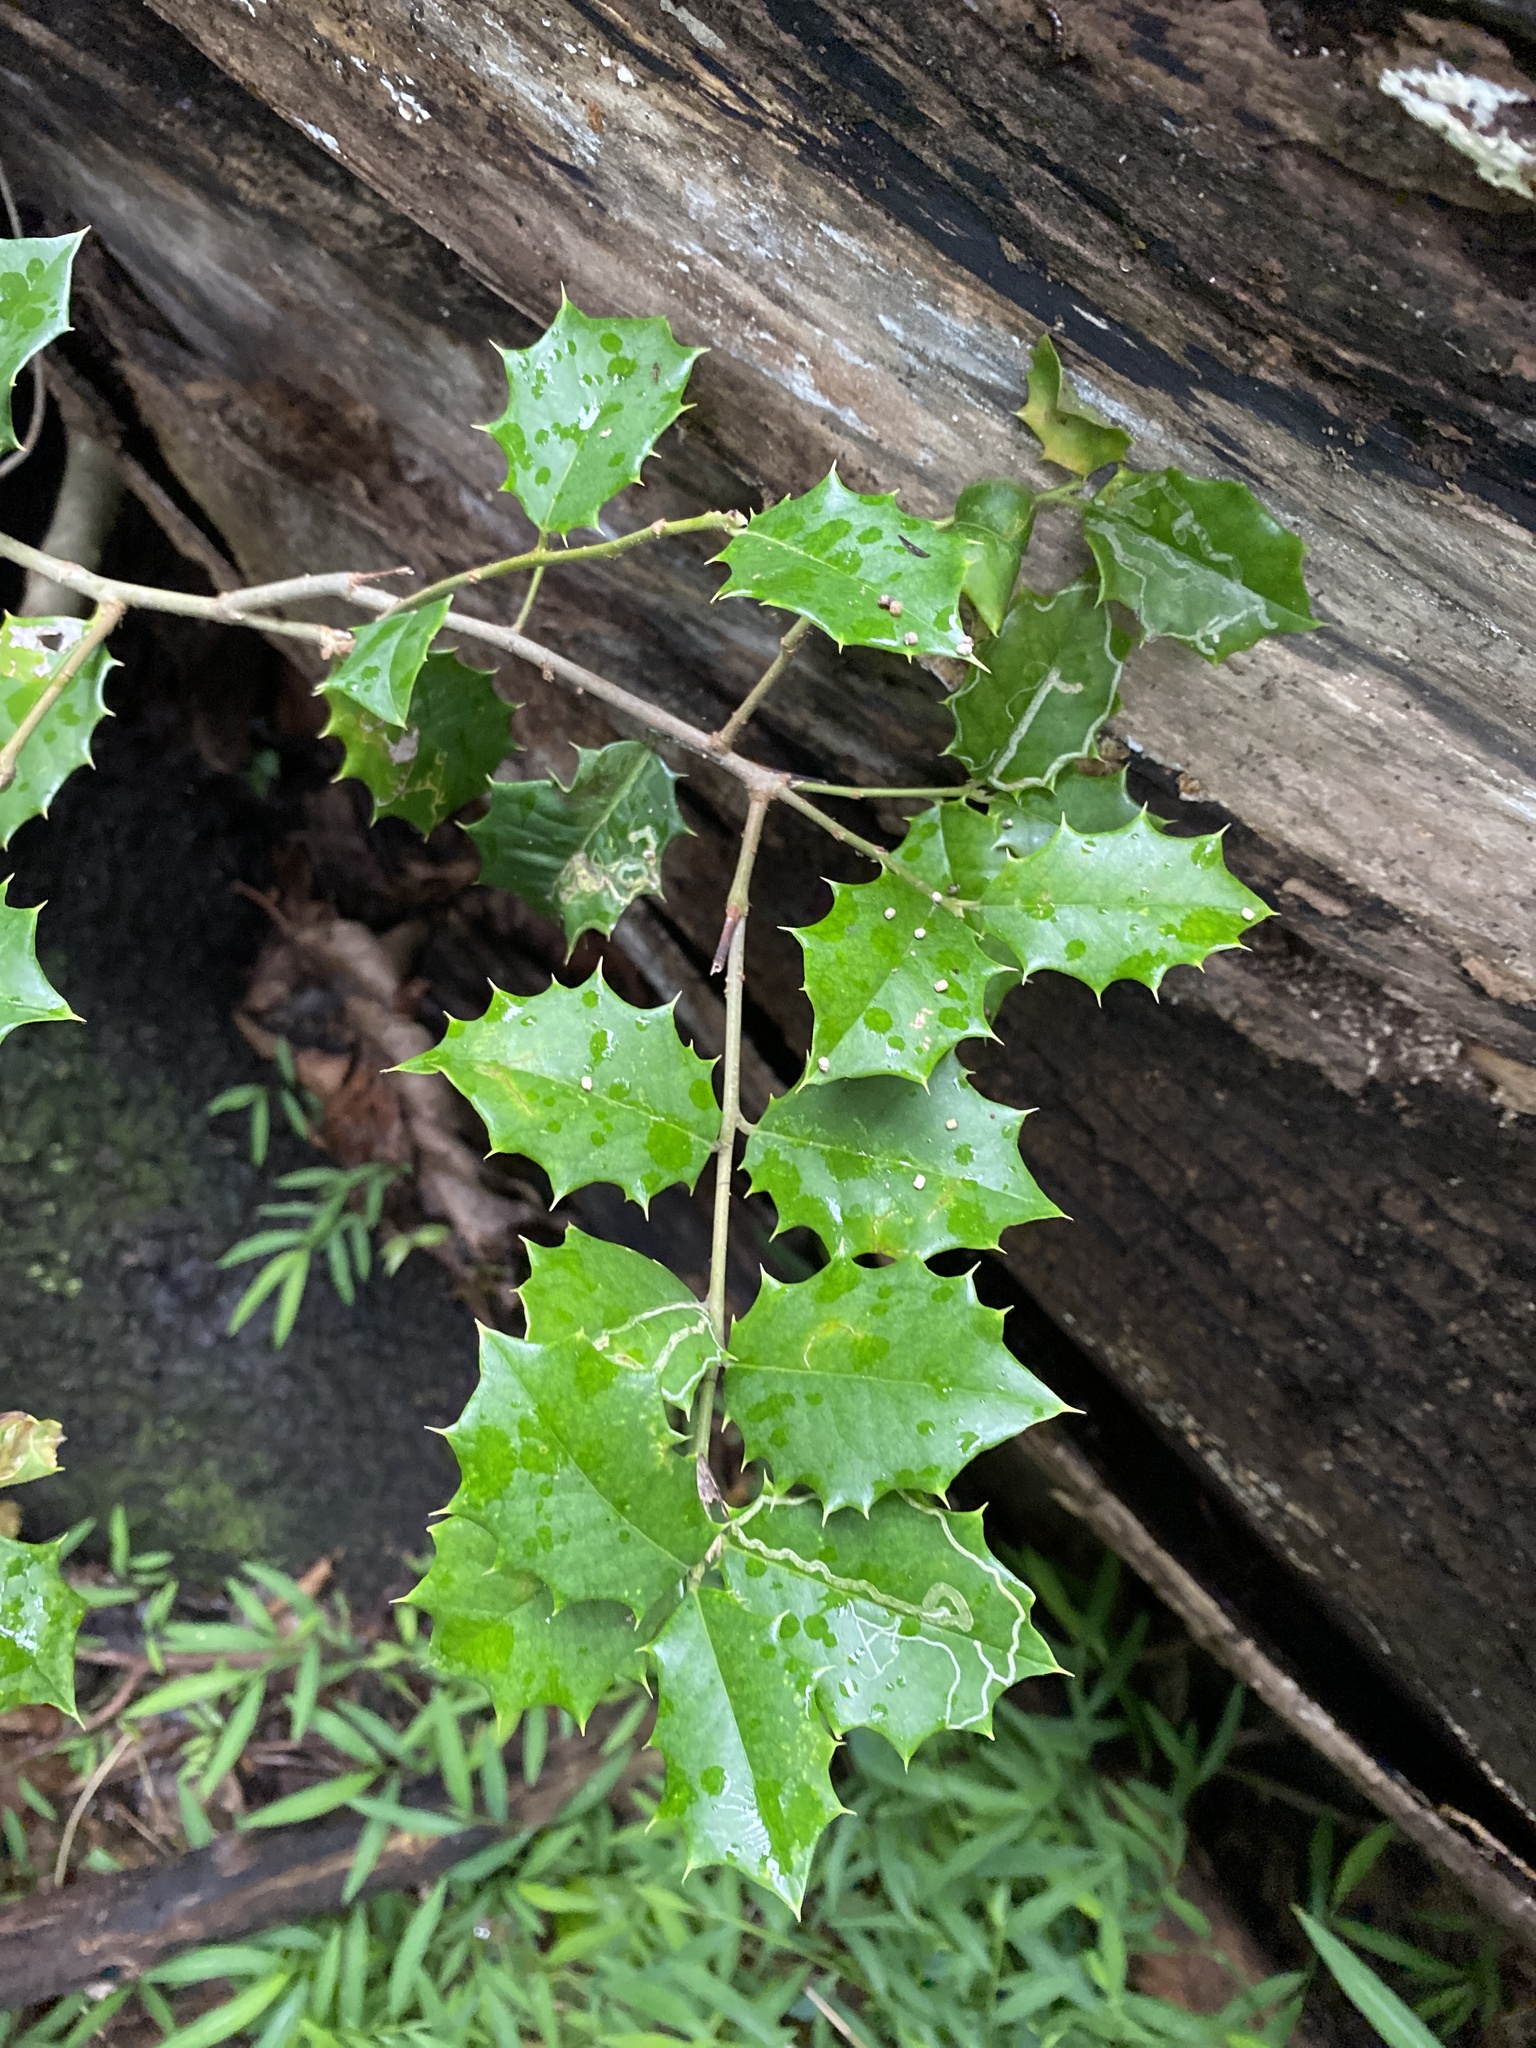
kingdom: Plantae
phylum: Tracheophyta
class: Magnoliopsida
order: Aquifoliales
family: Aquifoliaceae
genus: Ilex
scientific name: Ilex opaca
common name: American holly
